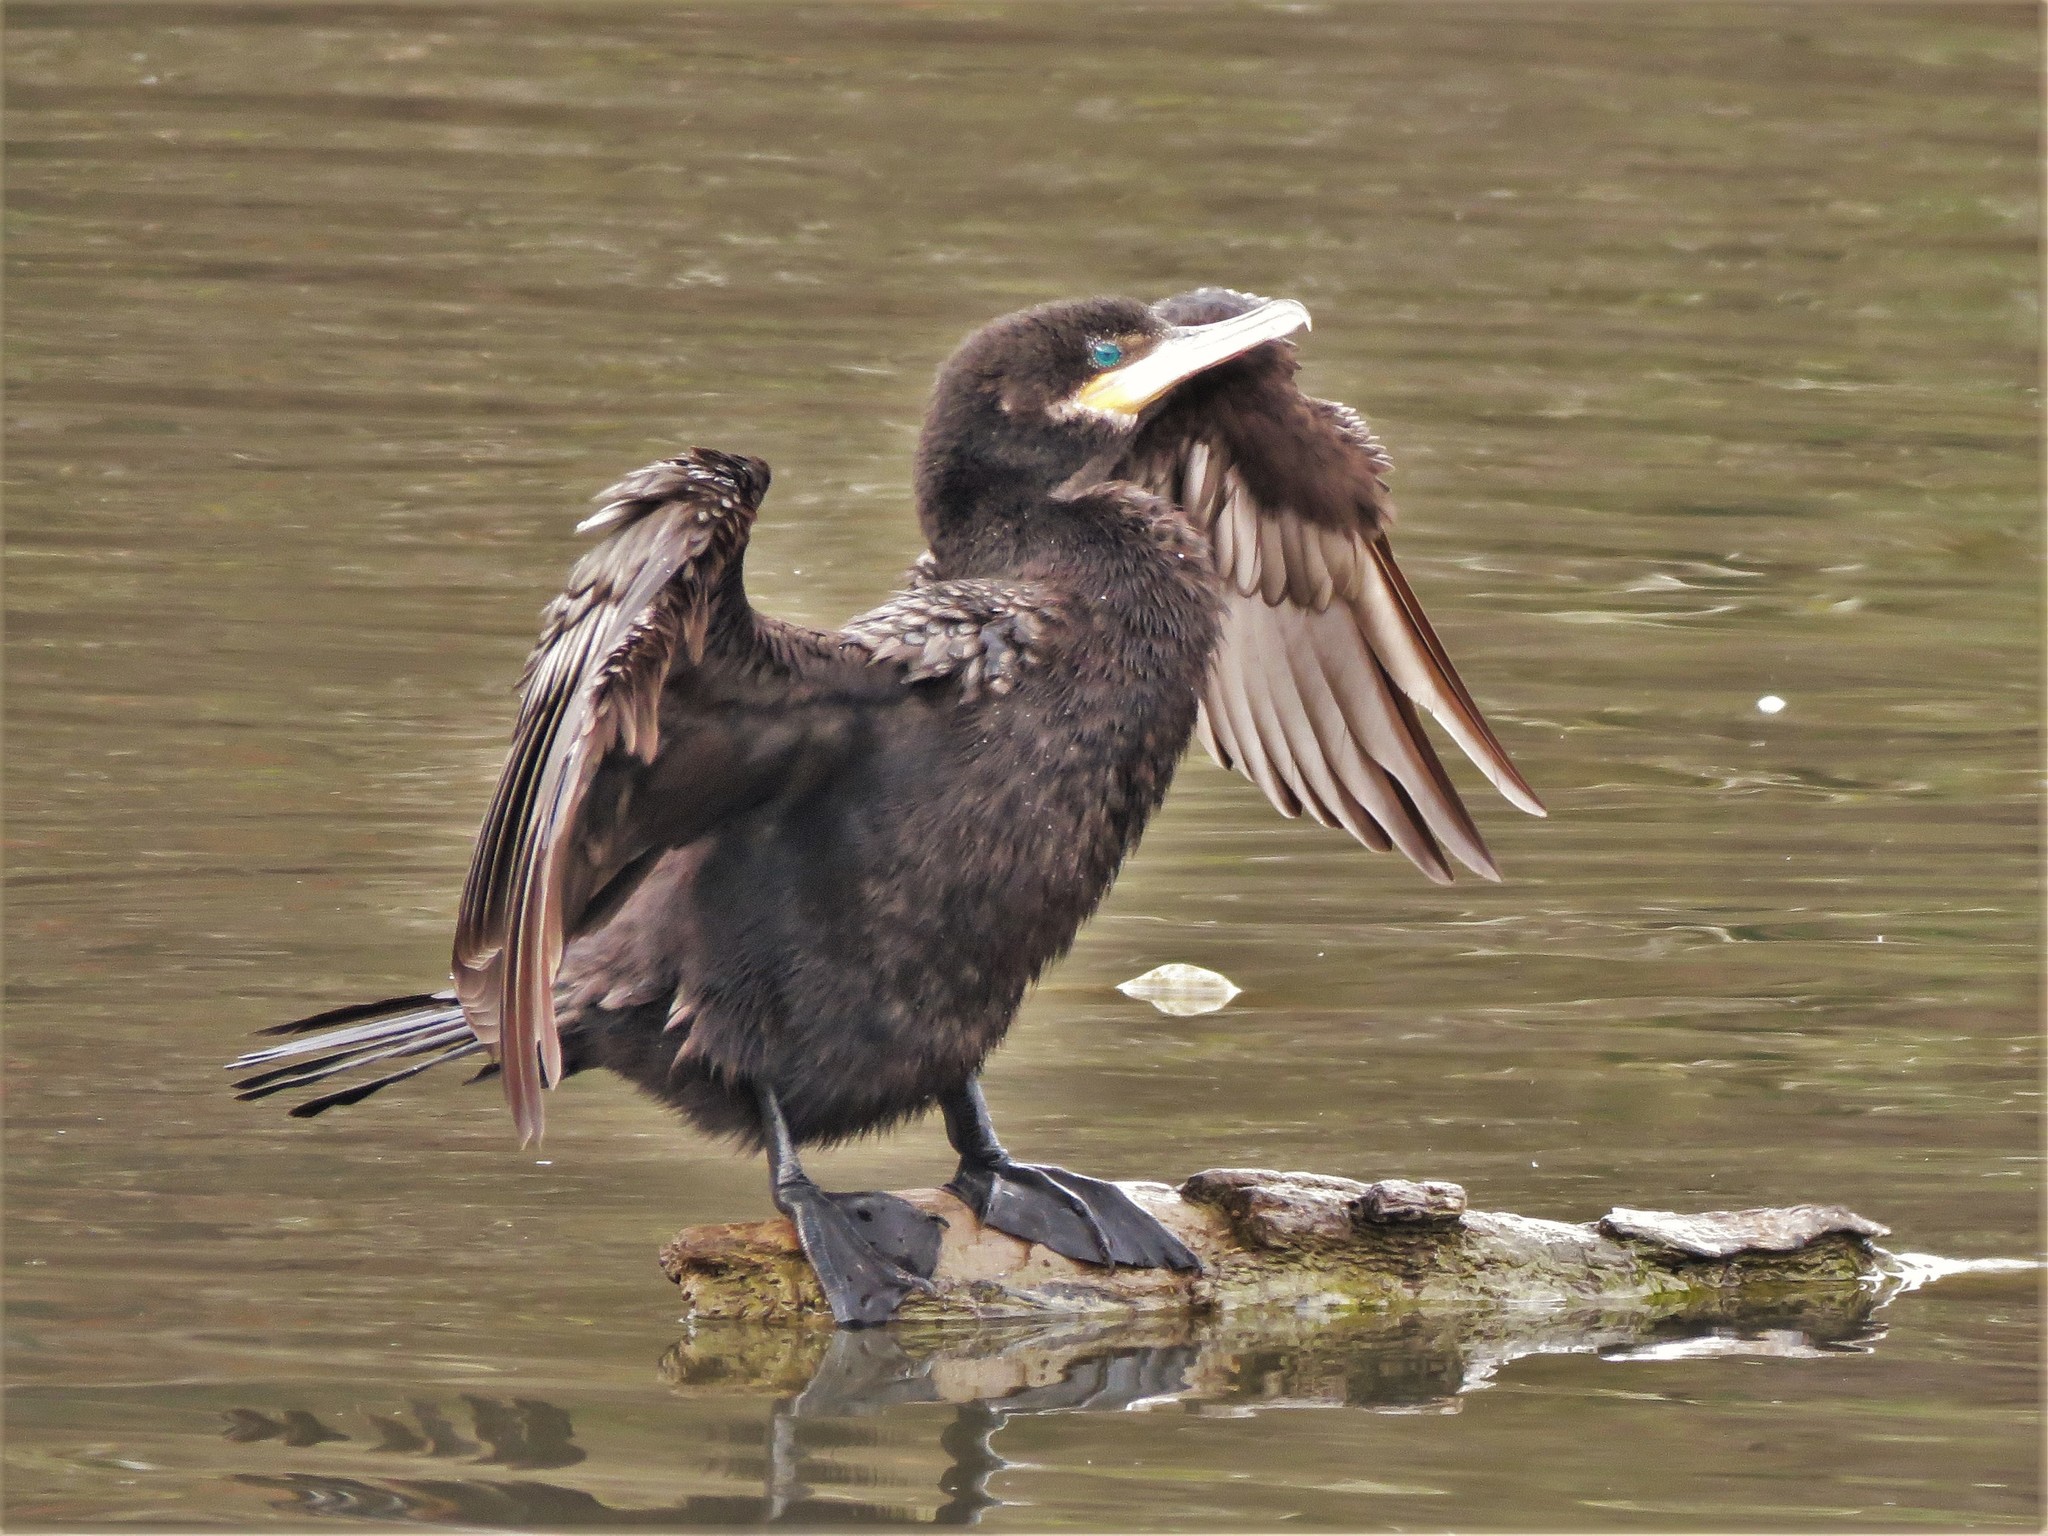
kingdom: Animalia
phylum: Chordata
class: Aves
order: Suliformes
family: Phalacrocoracidae
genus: Phalacrocorax
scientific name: Phalacrocorax brasilianus
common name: Neotropic cormorant
